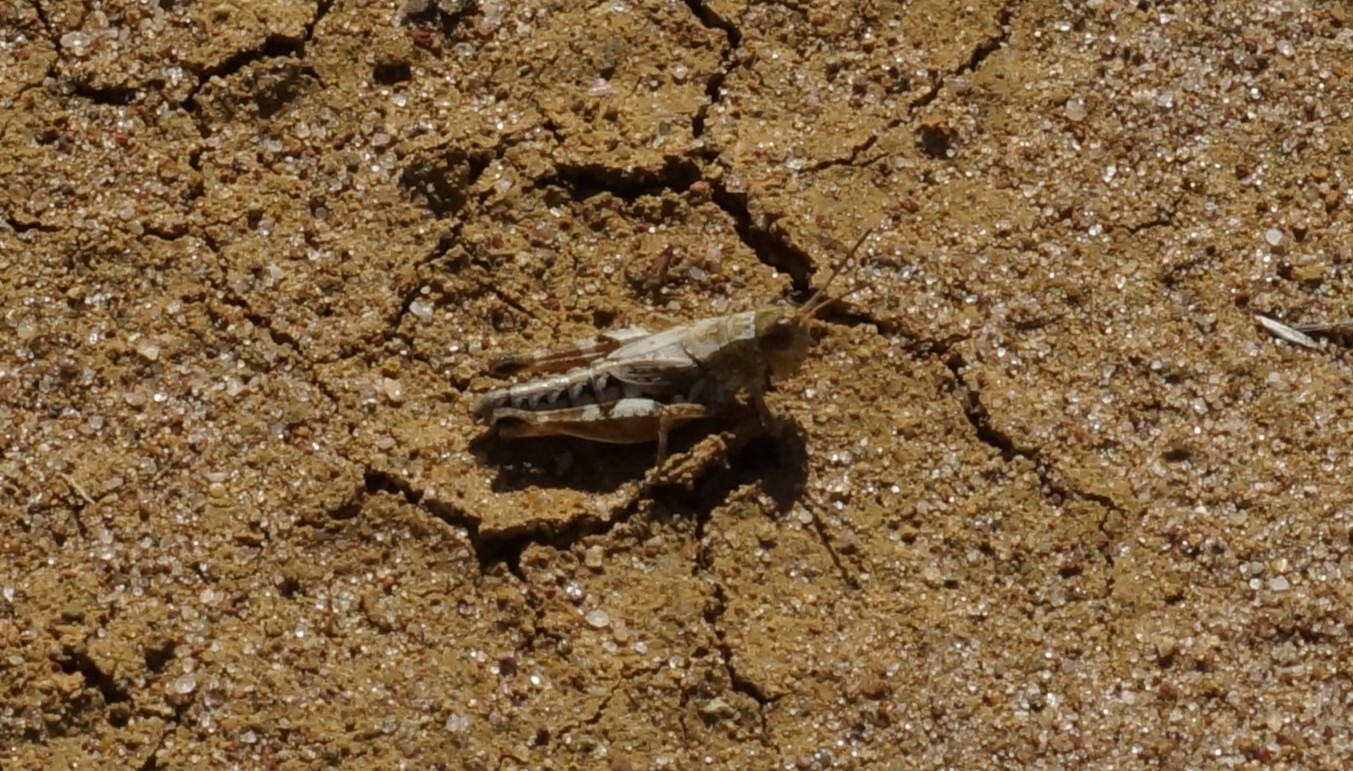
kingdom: Animalia
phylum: Arthropoda
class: Insecta
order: Orthoptera
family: Acrididae
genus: Phaulacridium
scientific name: Phaulacridium vittatum
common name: Wingless grasshopper
